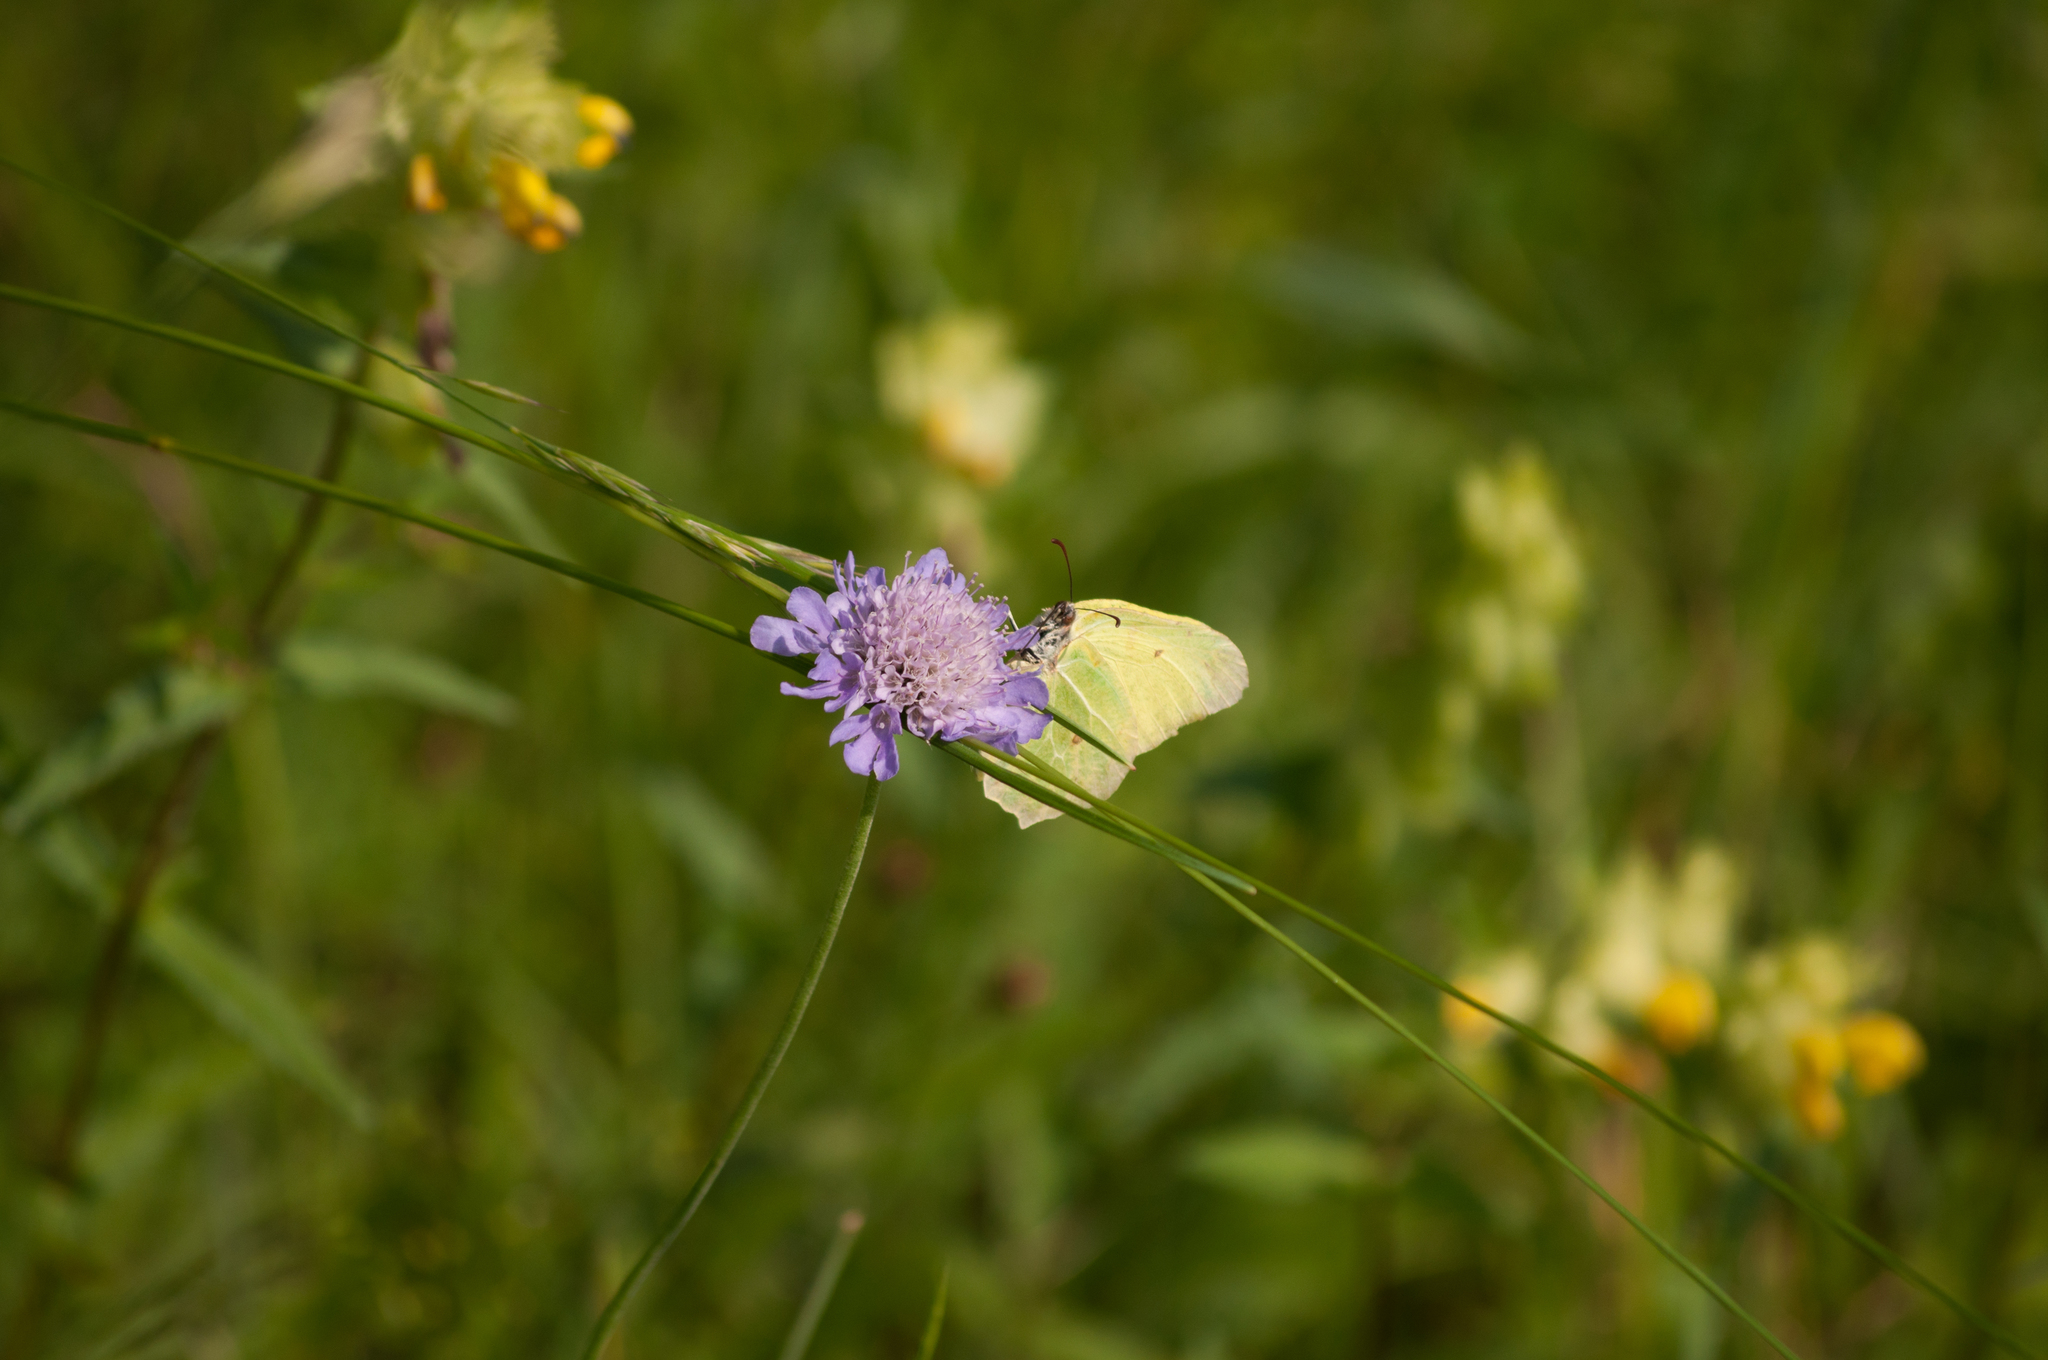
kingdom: Animalia
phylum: Arthropoda
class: Insecta
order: Lepidoptera
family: Pieridae
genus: Gonepteryx
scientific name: Gonepteryx rhamni
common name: Brimstone
